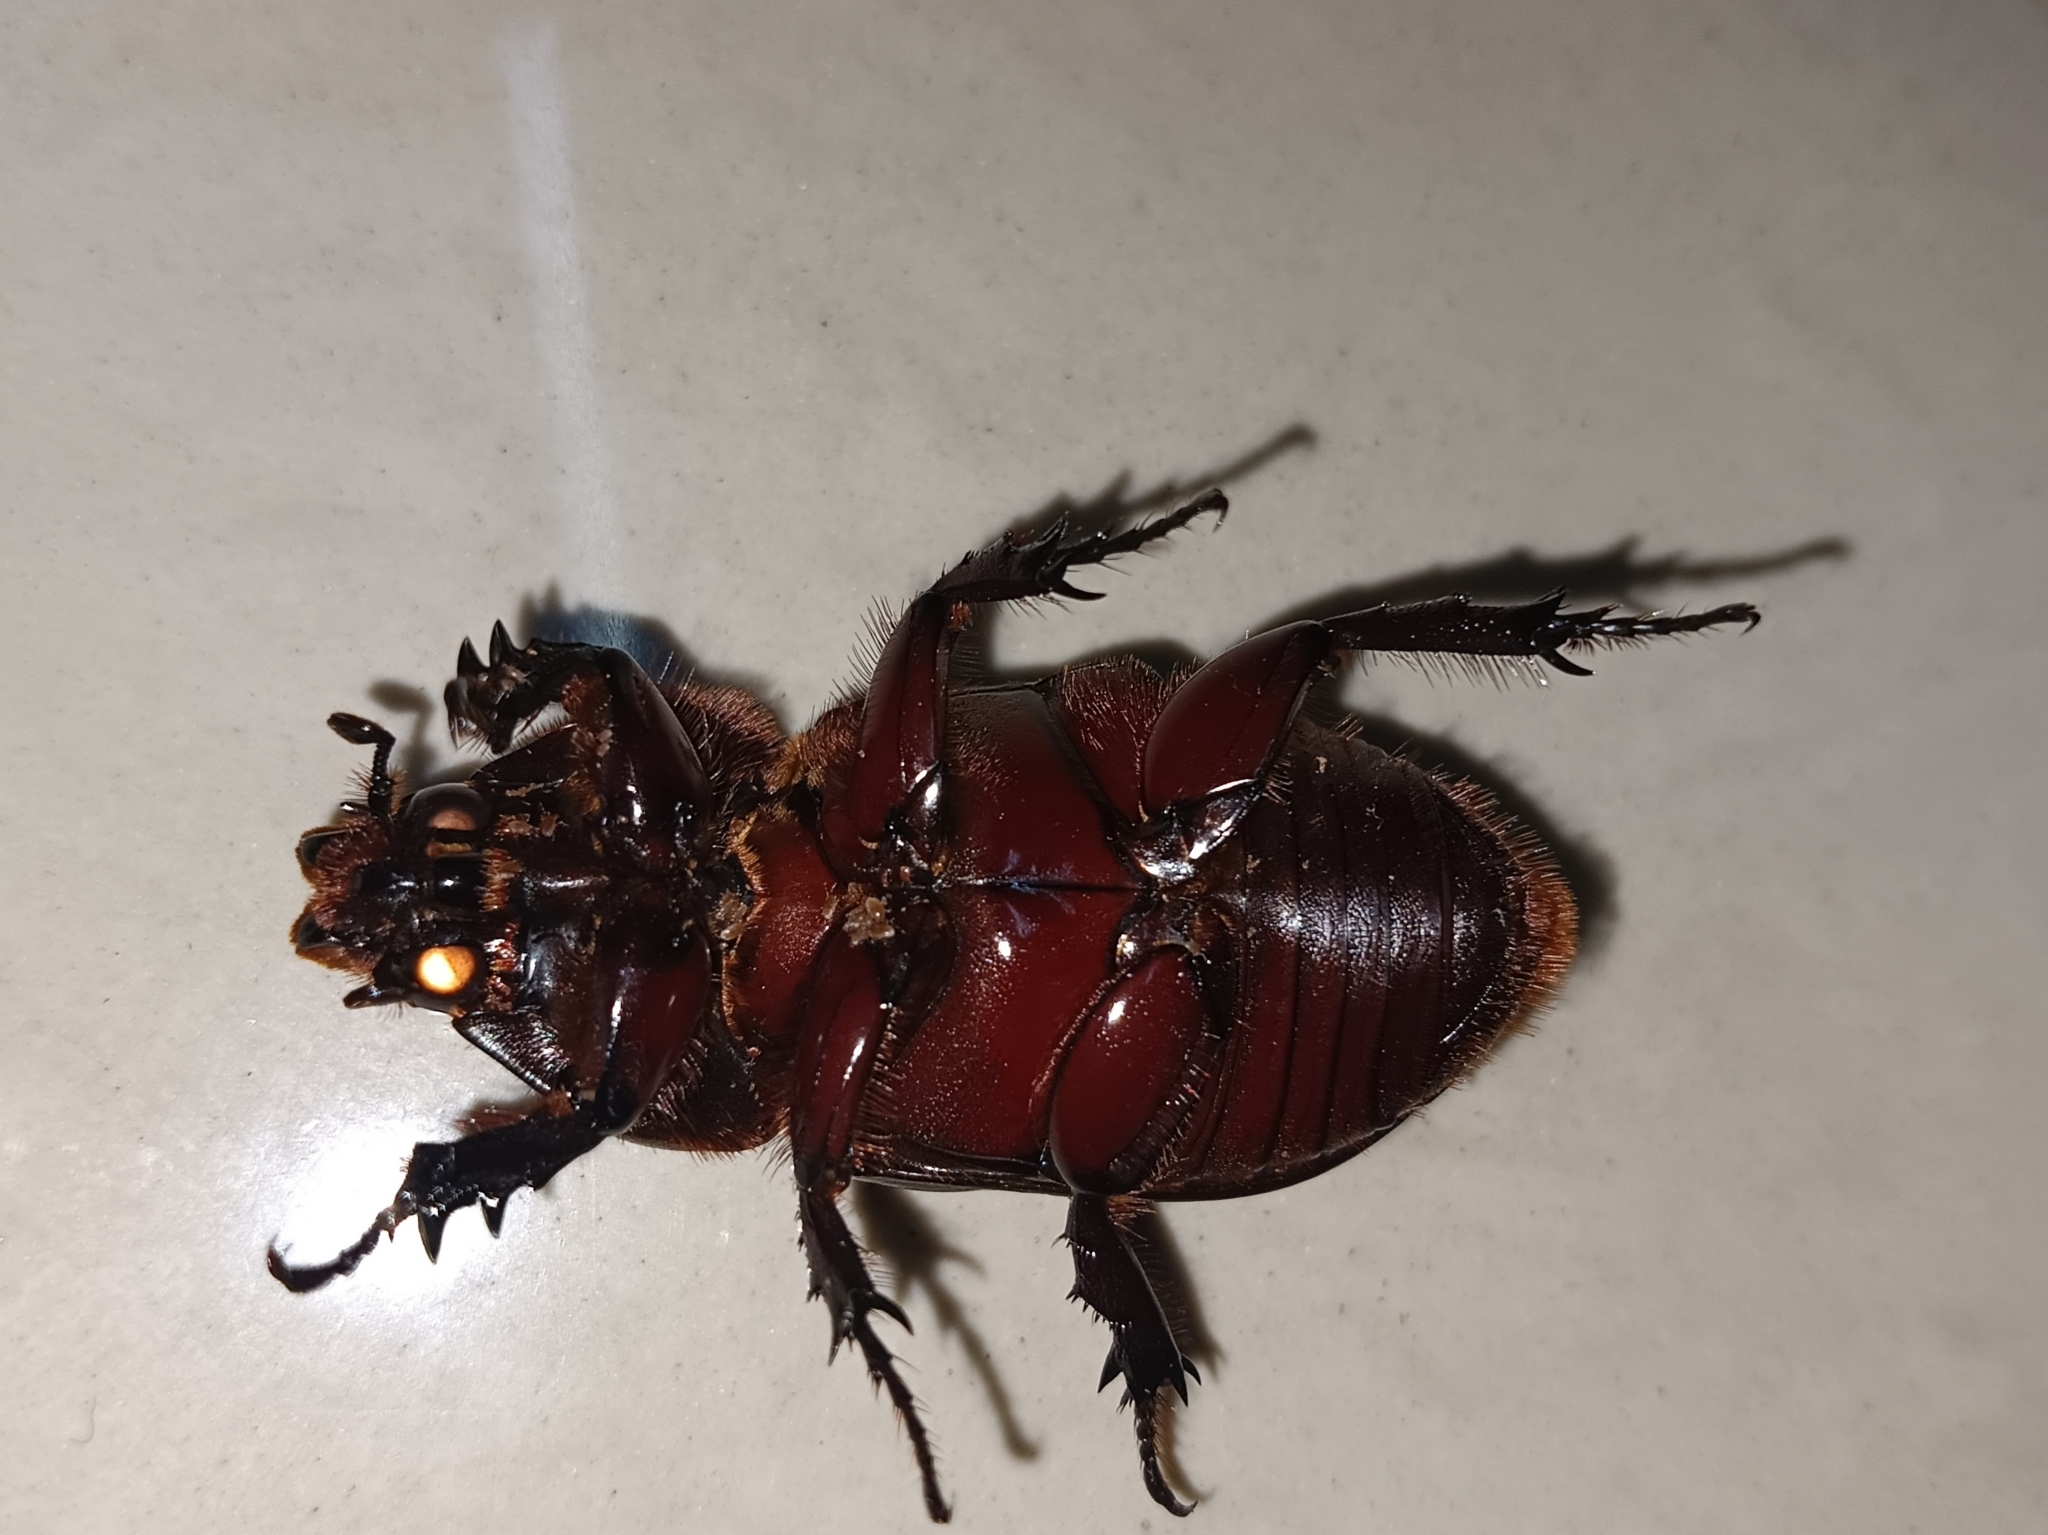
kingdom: Animalia
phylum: Arthropoda
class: Insecta
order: Coleoptera
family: Scarabaeidae
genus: Oryctes
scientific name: Oryctes rhinoceros
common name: Coconut rhinoceros beetle
